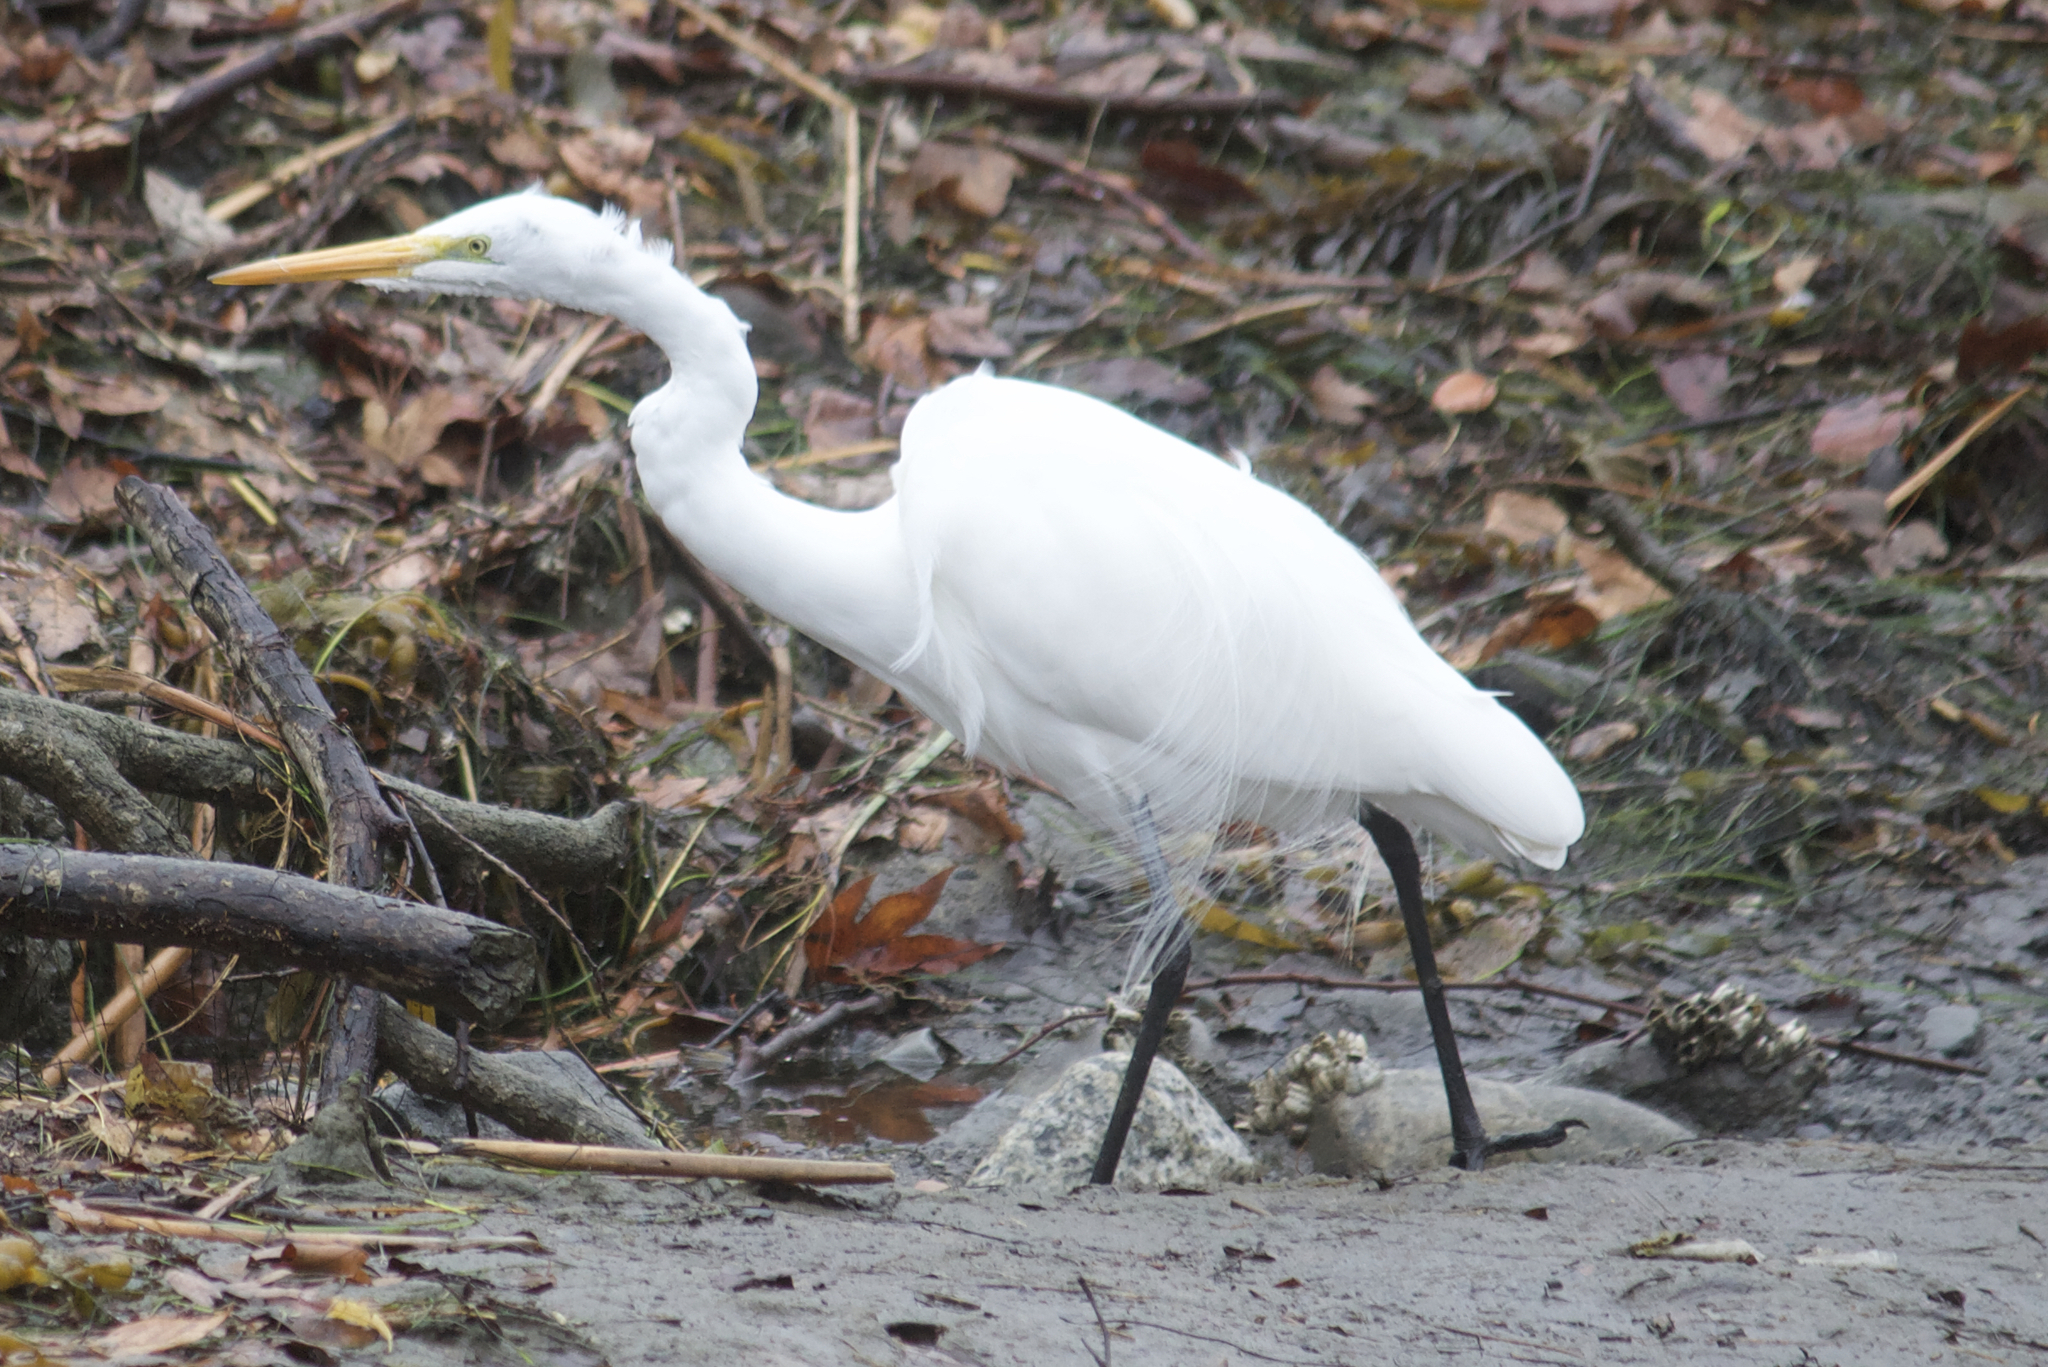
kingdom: Animalia
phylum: Chordata
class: Aves
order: Pelecaniformes
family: Ardeidae
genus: Ardea
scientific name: Ardea alba
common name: Great egret
